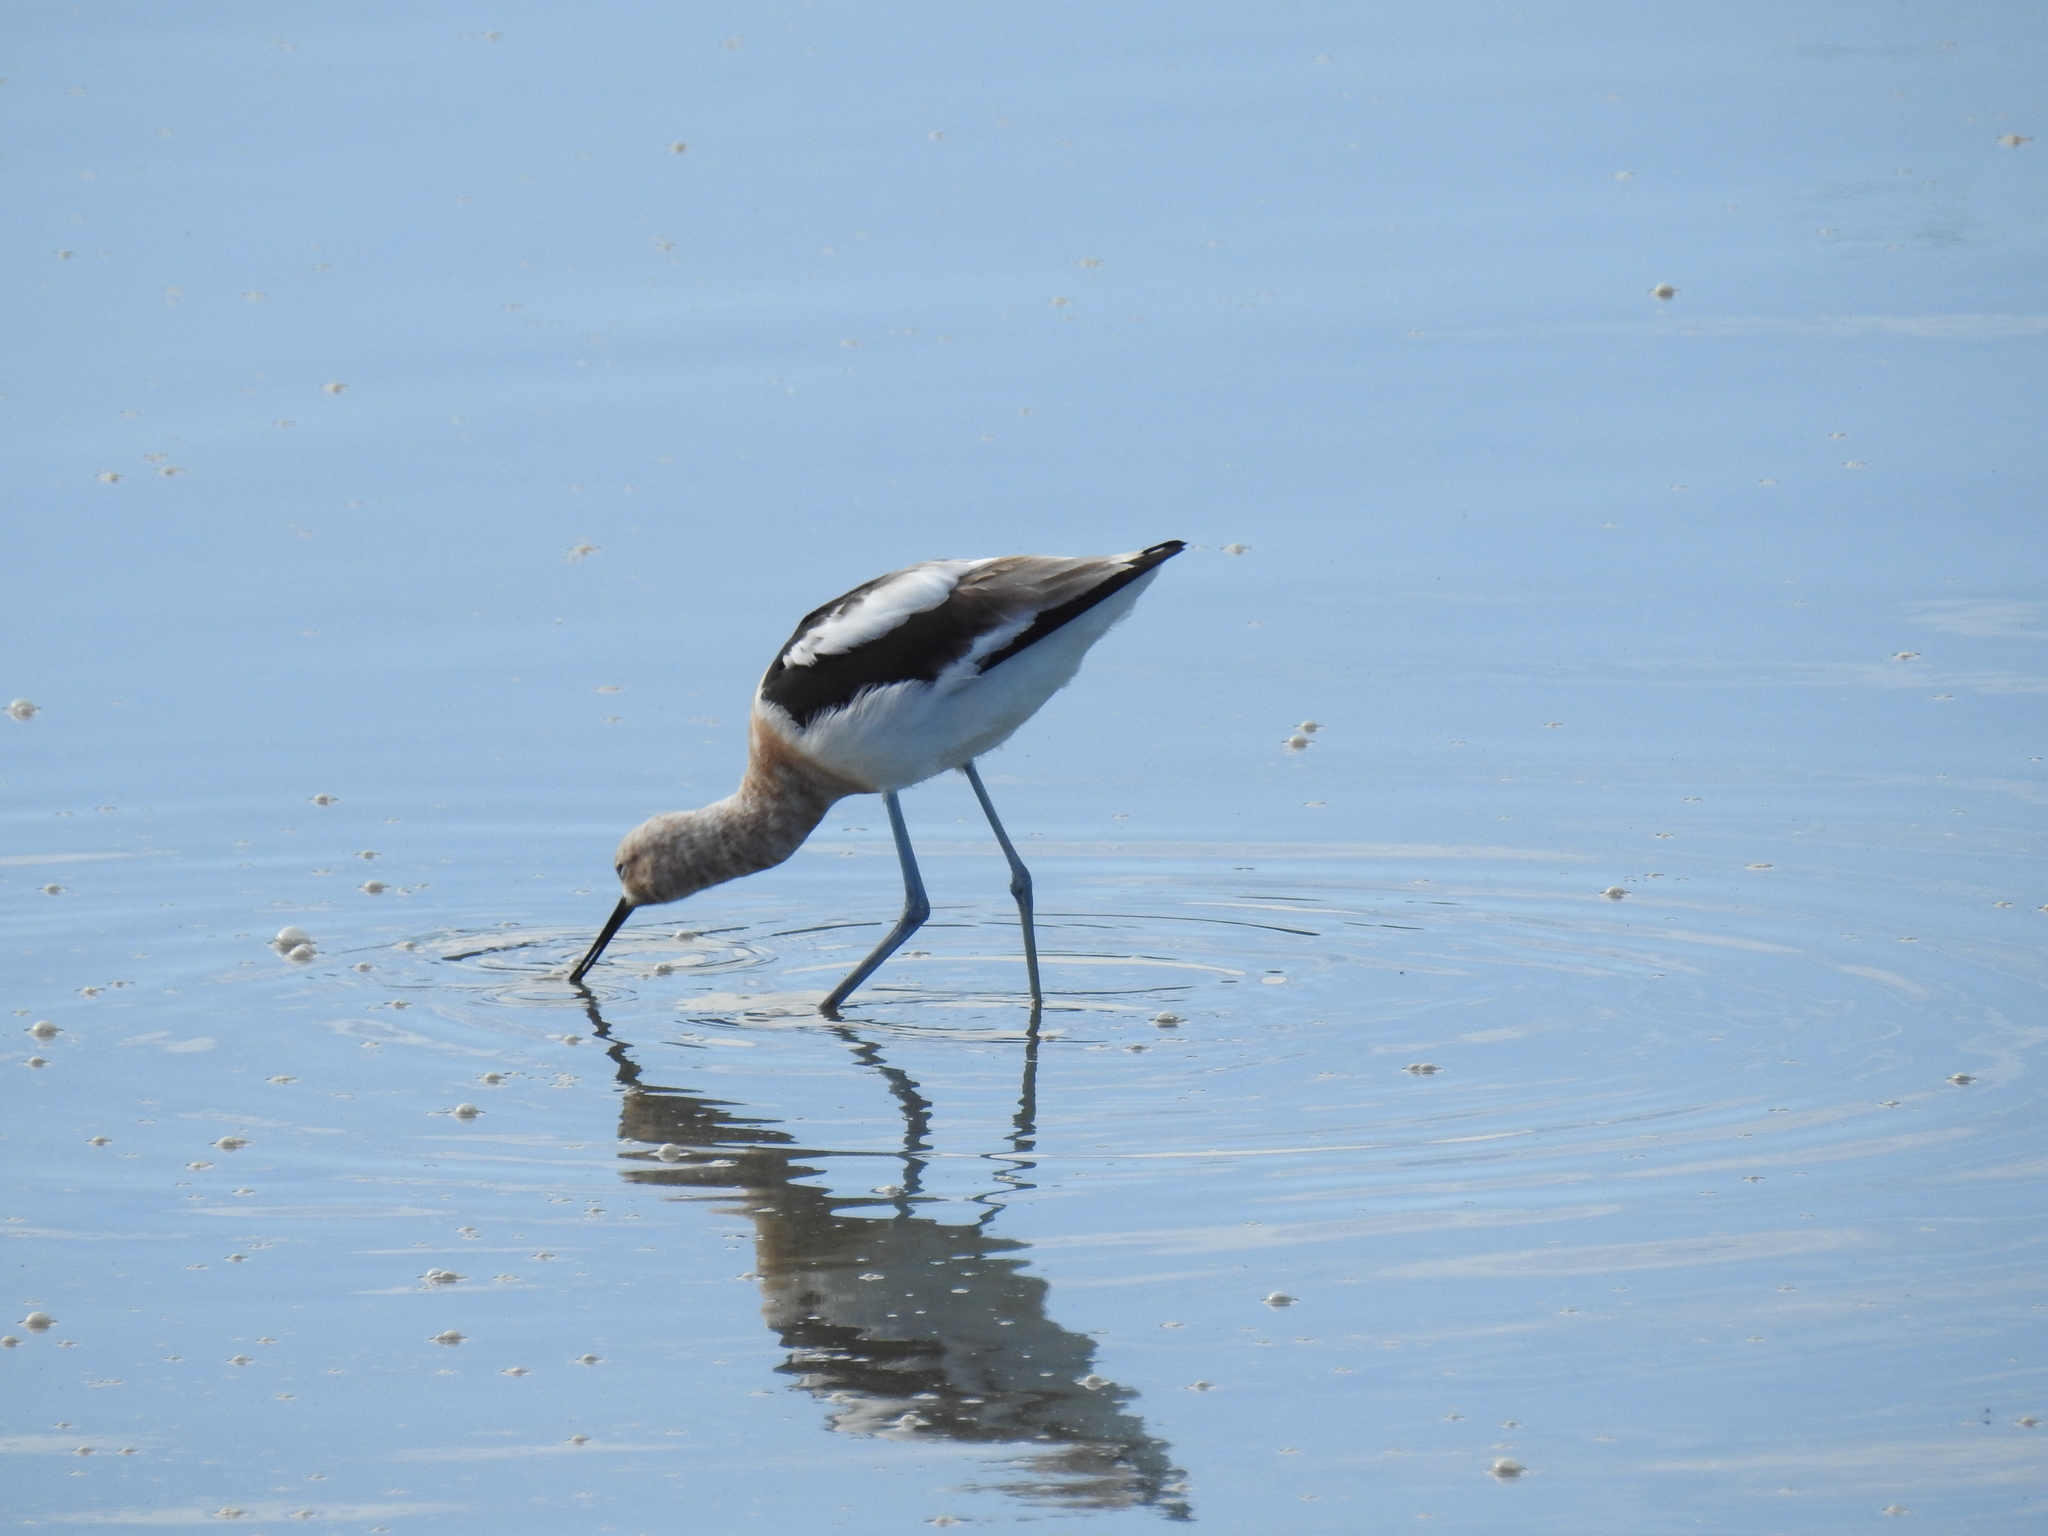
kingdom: Animalia
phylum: Chordata
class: Aves
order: Charadriiformes
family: Recurvirostridae
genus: Recurvirostra
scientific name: Recurvirostra americana
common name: American avocet
